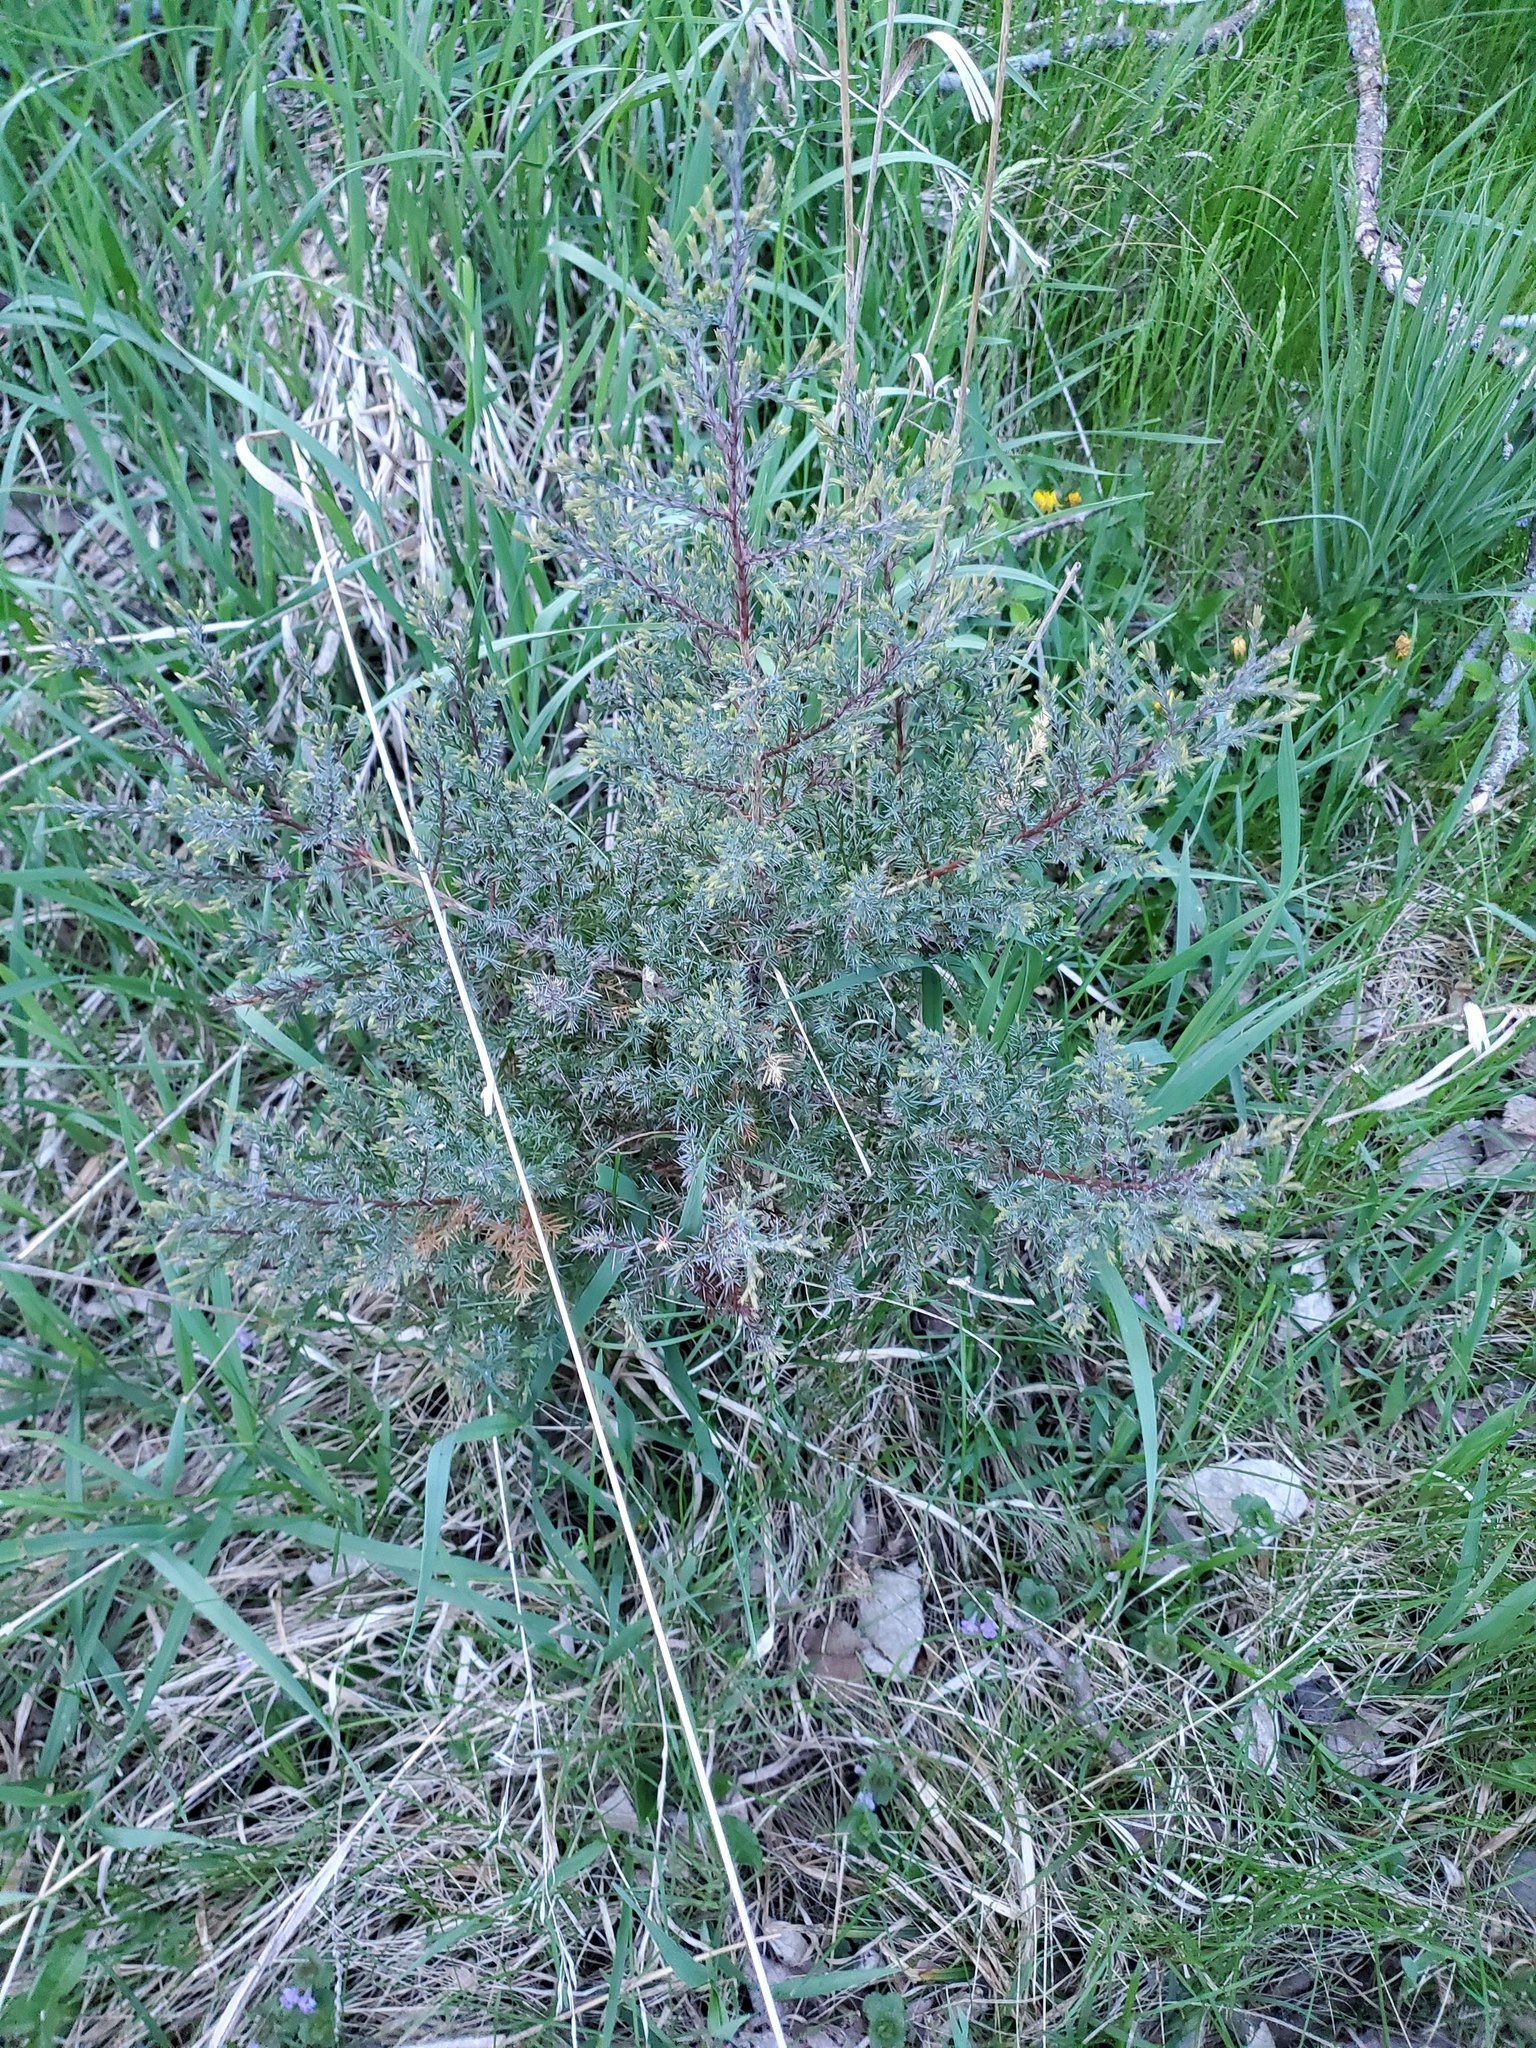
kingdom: Plantae
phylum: Tracheophyta
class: Pinopsida
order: Pinales
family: Cupressaceae
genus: Juniperus
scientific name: Juniperus virginiana
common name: Red juniper
